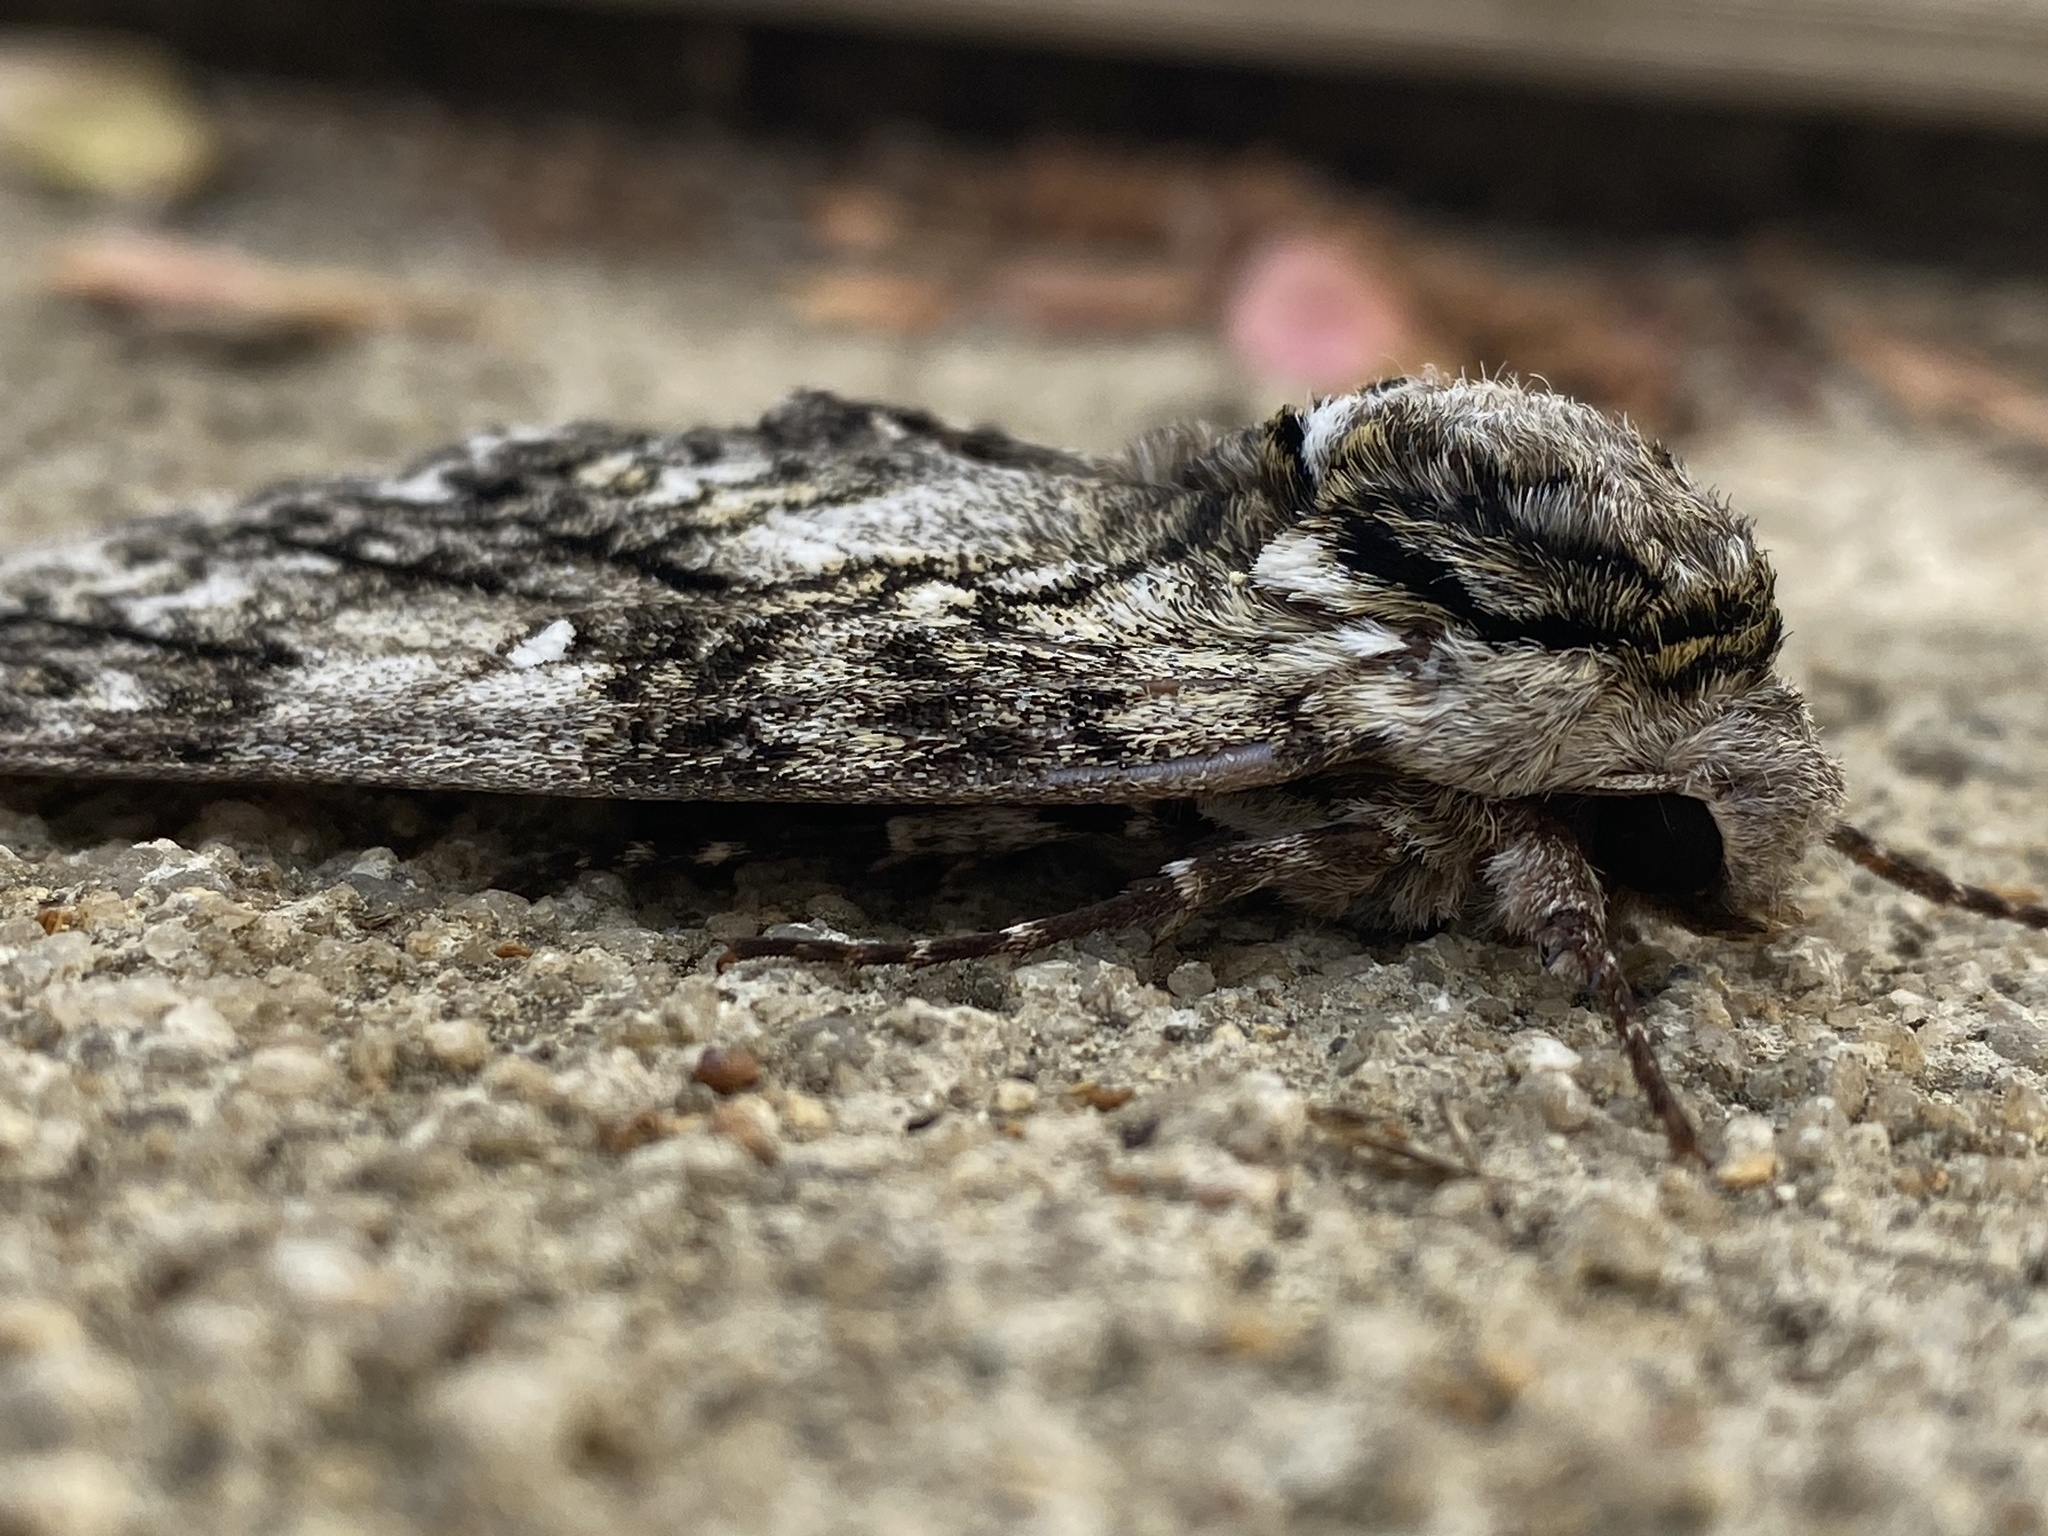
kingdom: Animalia
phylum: Arthropoda
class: Insecta
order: Lepidoptera
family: Sphingidae
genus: Ceratomia
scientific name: Ceratomia undulosa
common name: Waved sphinx
